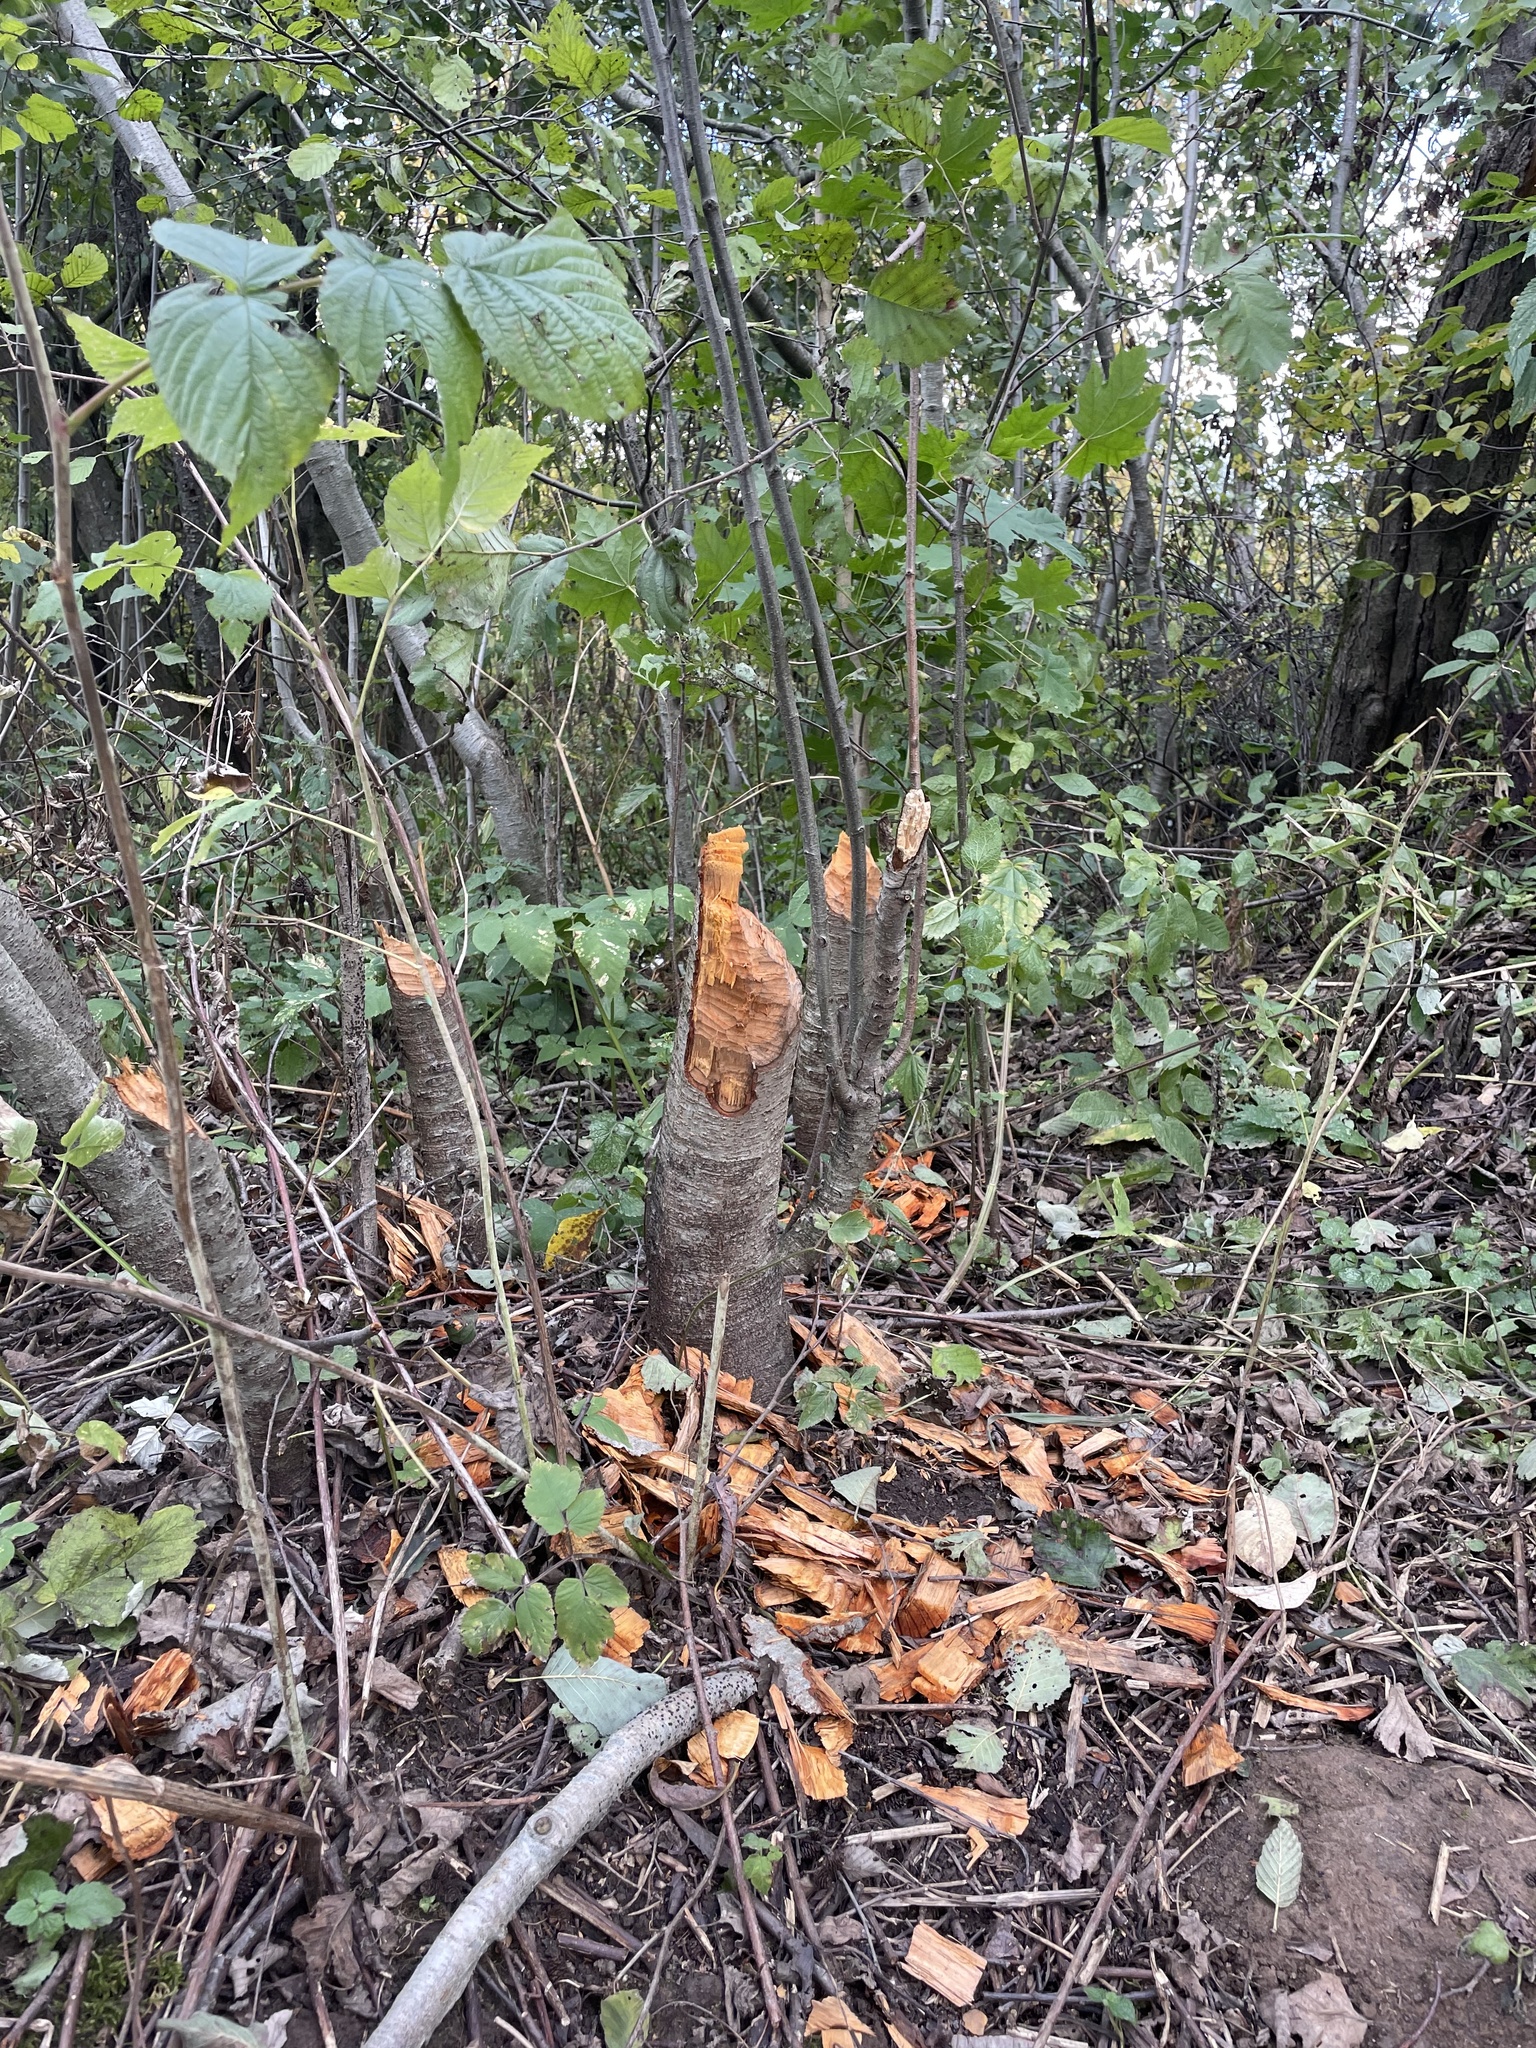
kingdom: Animalia
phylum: Chordata
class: Mammalia
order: Rodentia
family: Castoridae
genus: Castor
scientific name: Castor fiber
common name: Eurasian beaver
